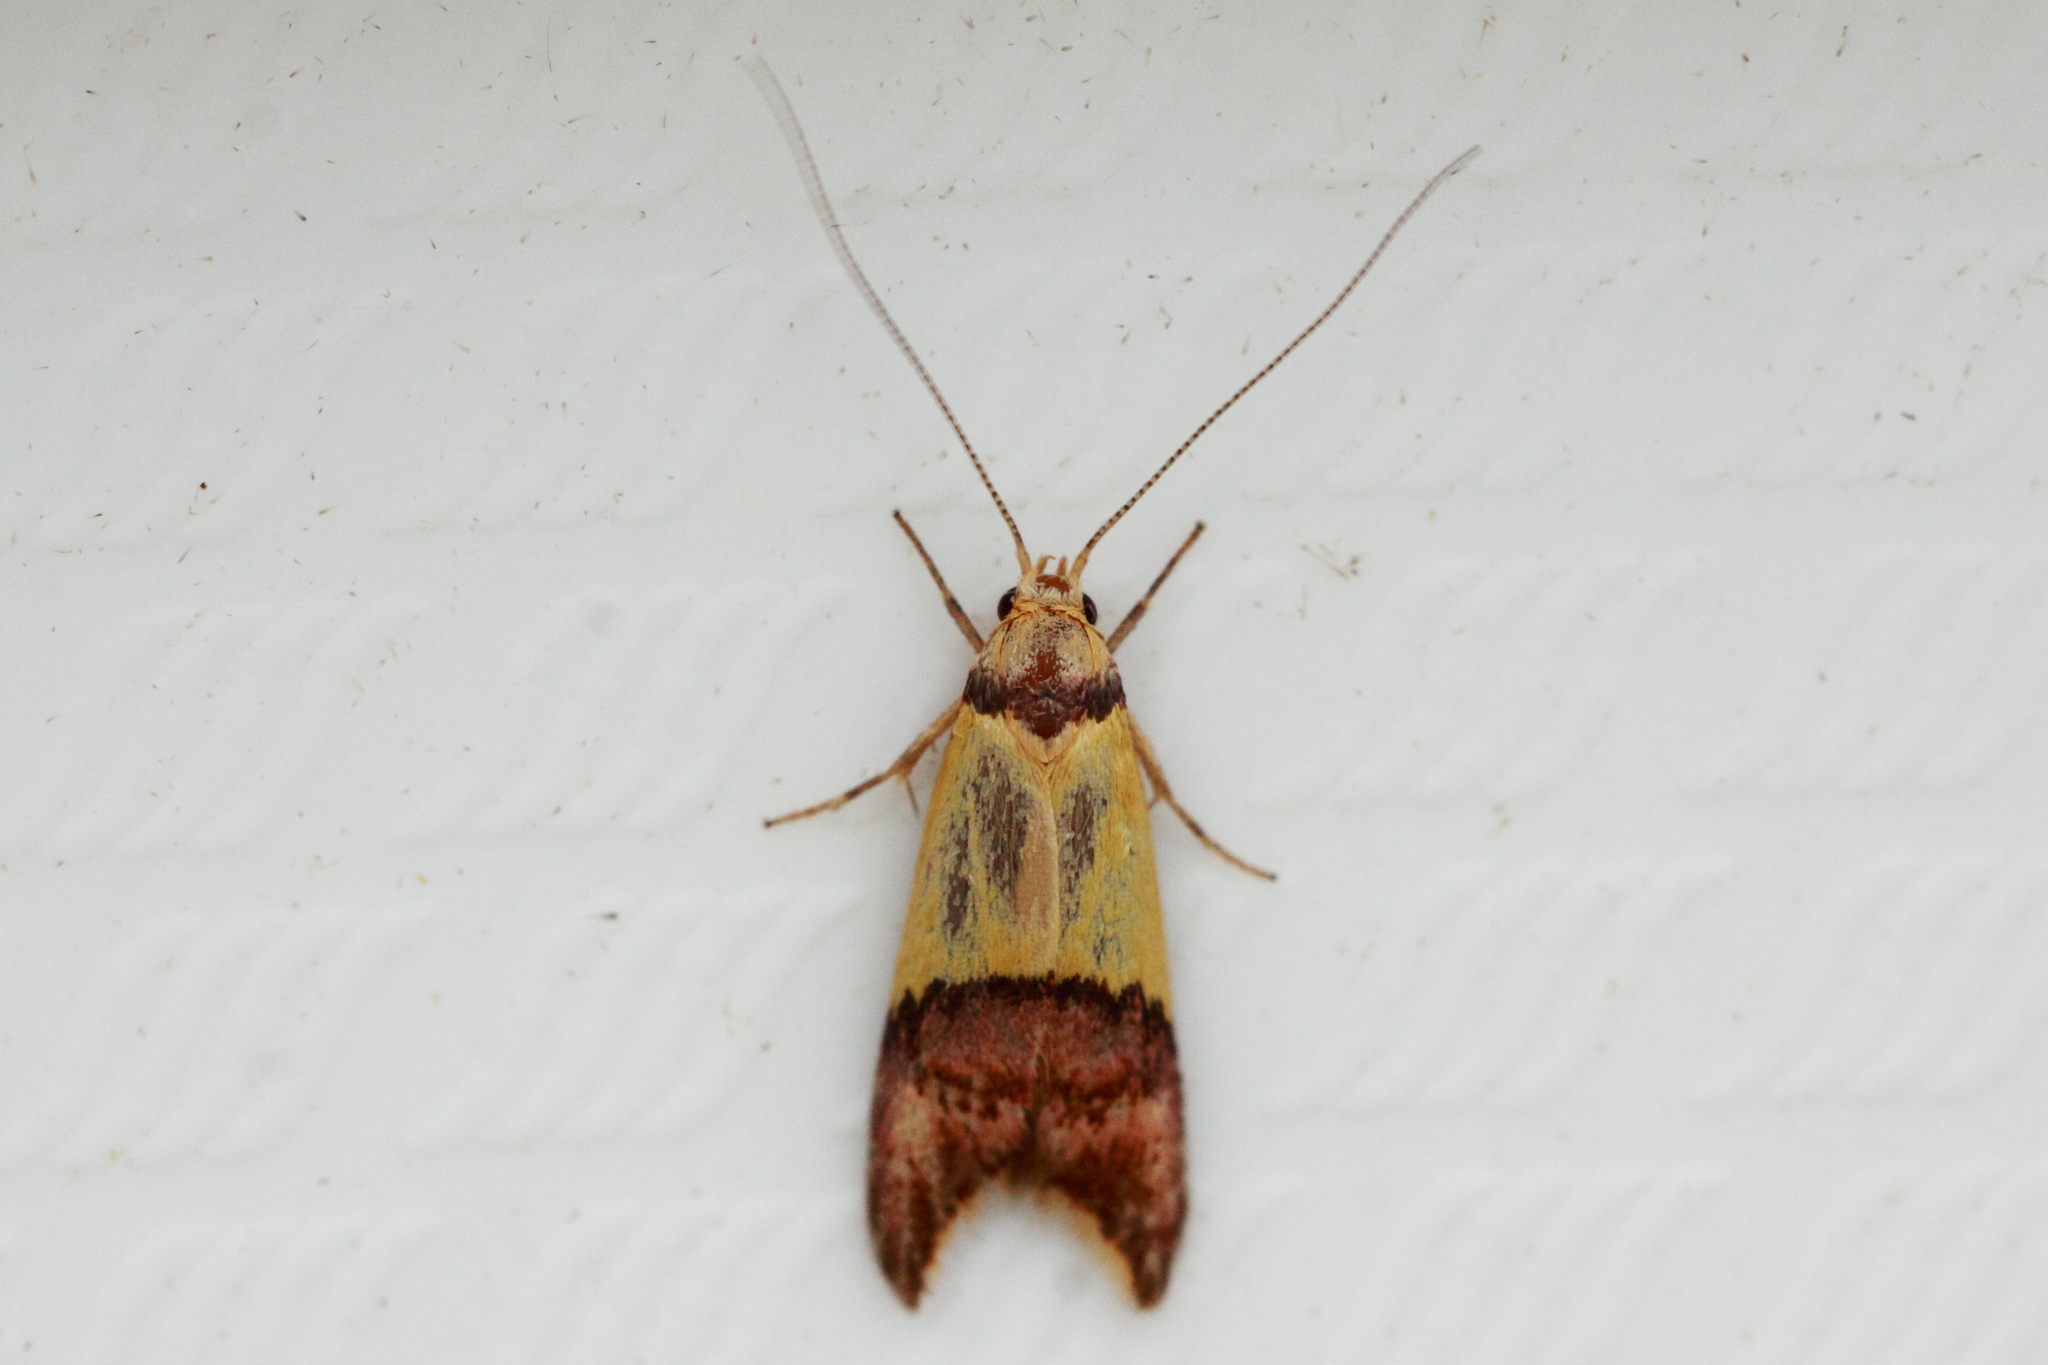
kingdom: Animalia
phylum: Arthropoda
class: Insecta
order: Lepidoptera
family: Oecophoridae
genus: Hemibela
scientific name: Hemibela oxyptera
